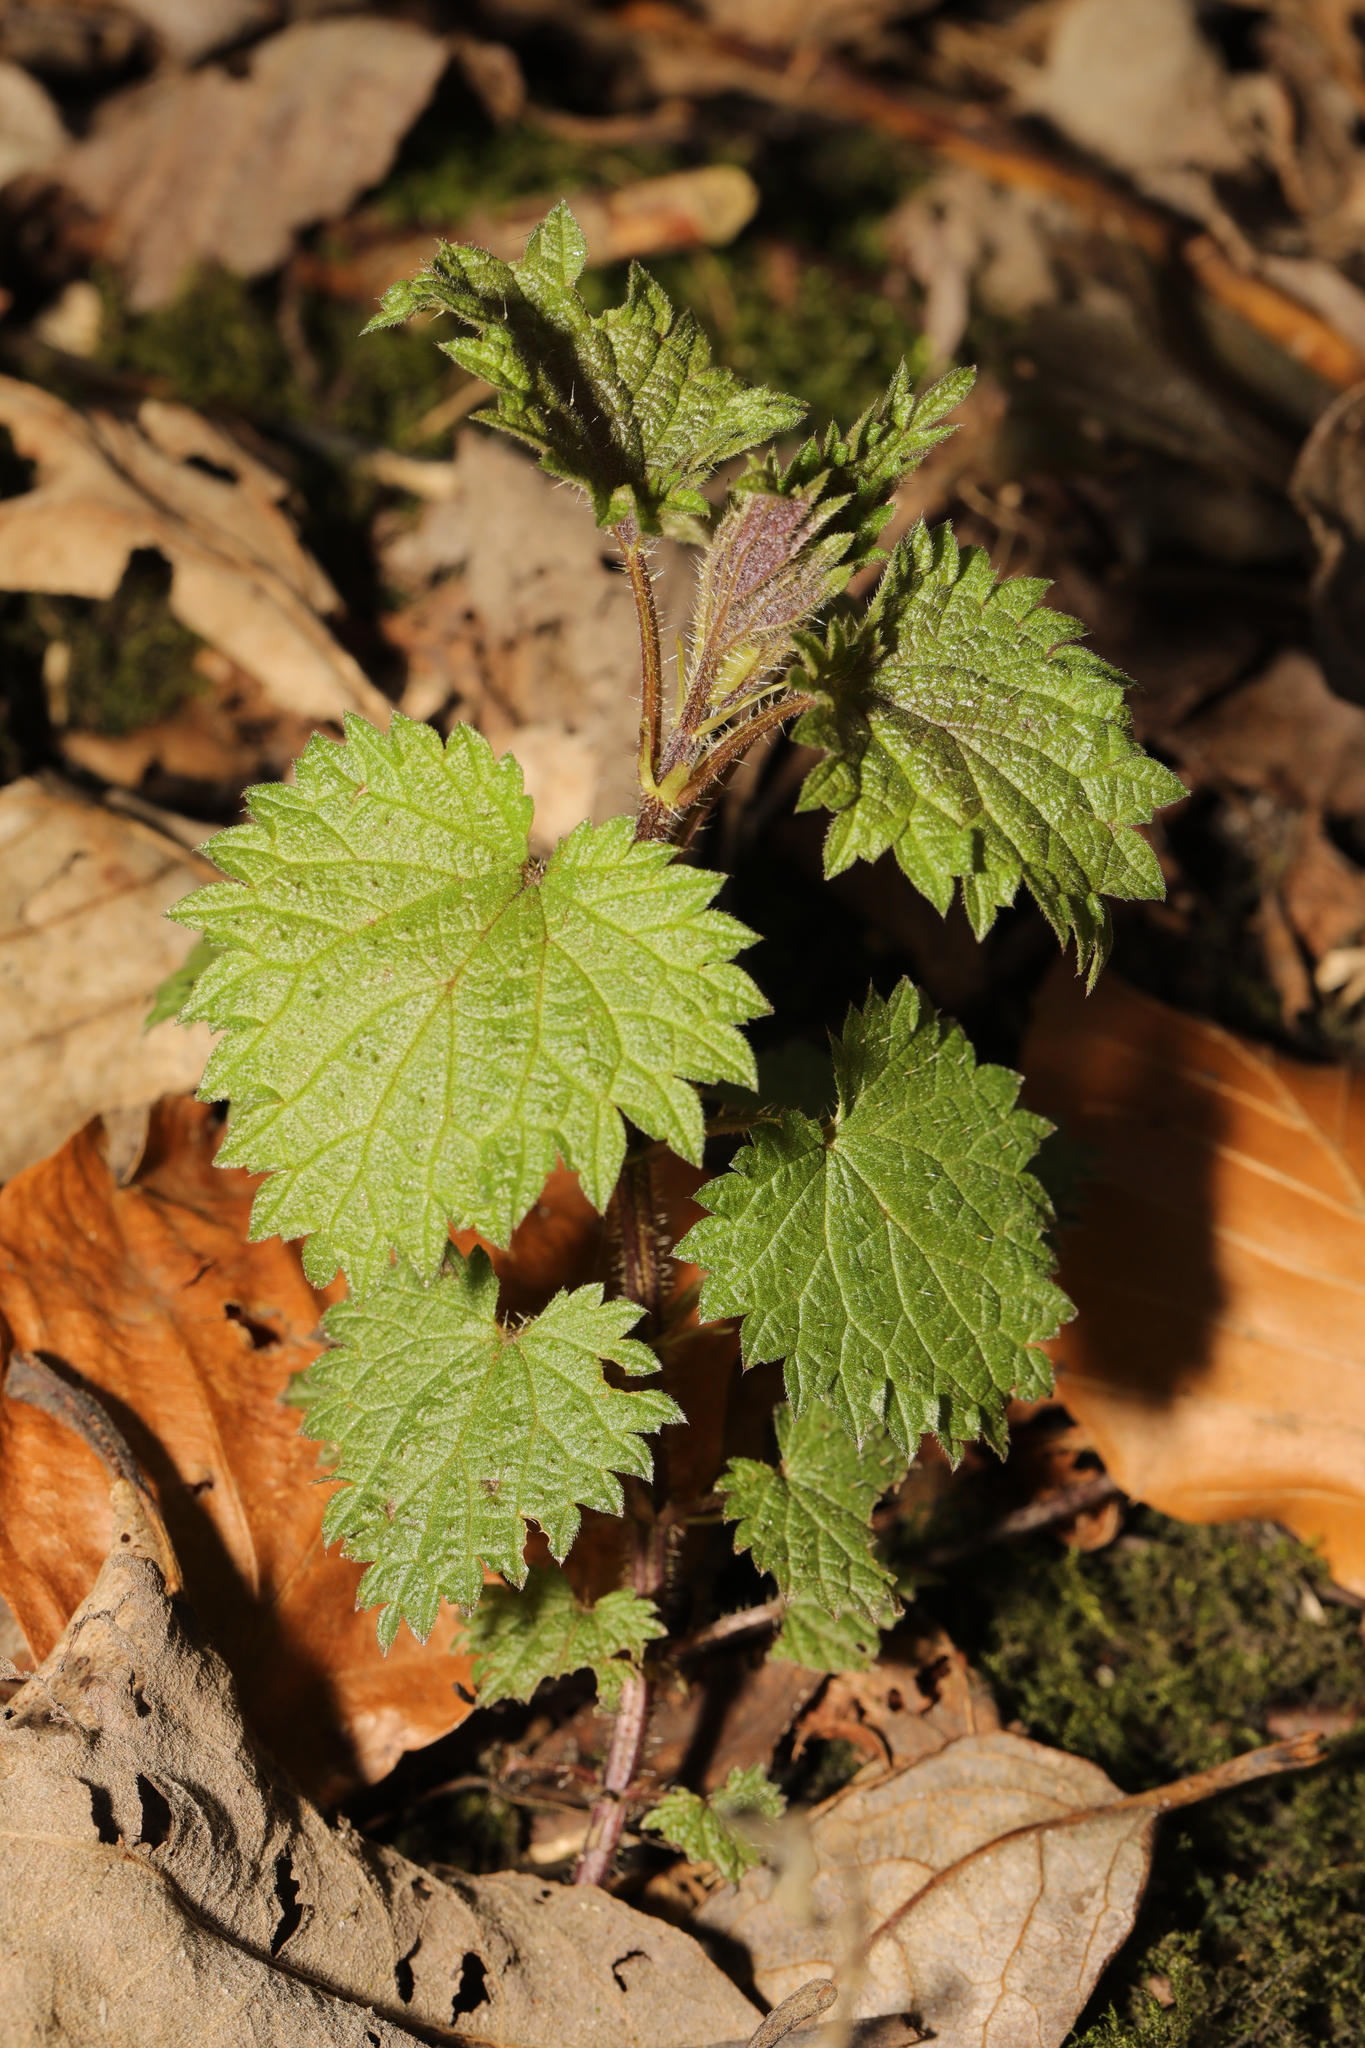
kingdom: Plantae
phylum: Tracheophyta
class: Magnoliopsida
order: Rosales
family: Urticaceae
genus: Urtica
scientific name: Urtica dioica
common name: Common nettle
